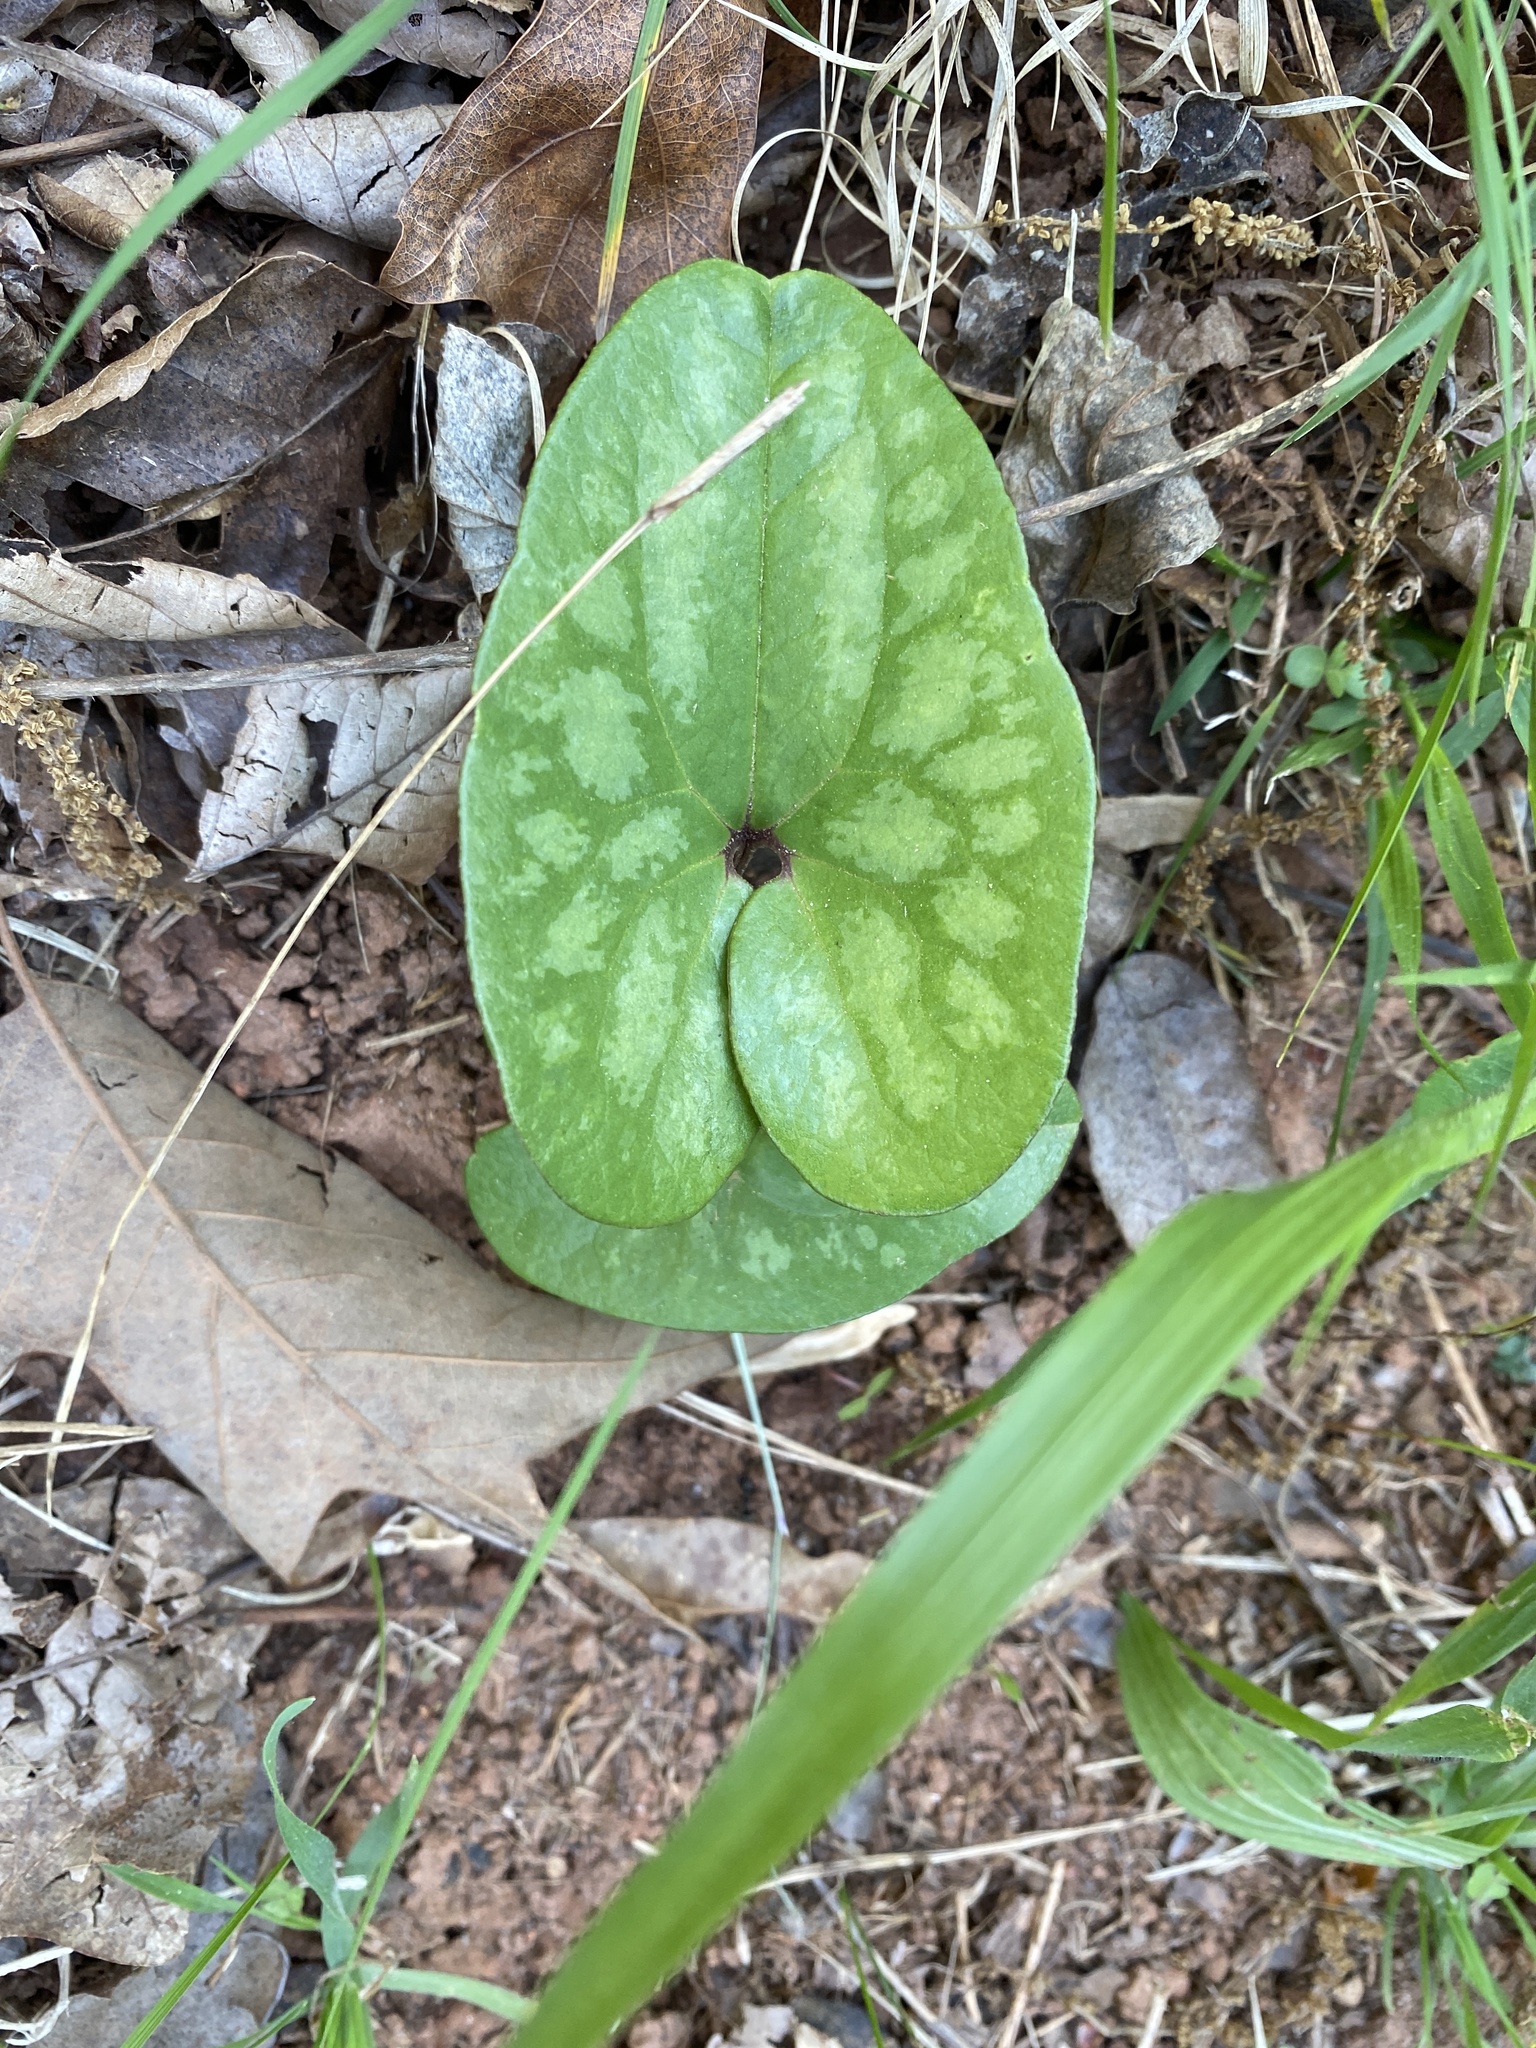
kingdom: Plantae
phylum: Tracheophyta
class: Magnoliopsida
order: Piperales
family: Aristolochiaceae
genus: Hexastylis
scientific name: Hexastylis arifolia
